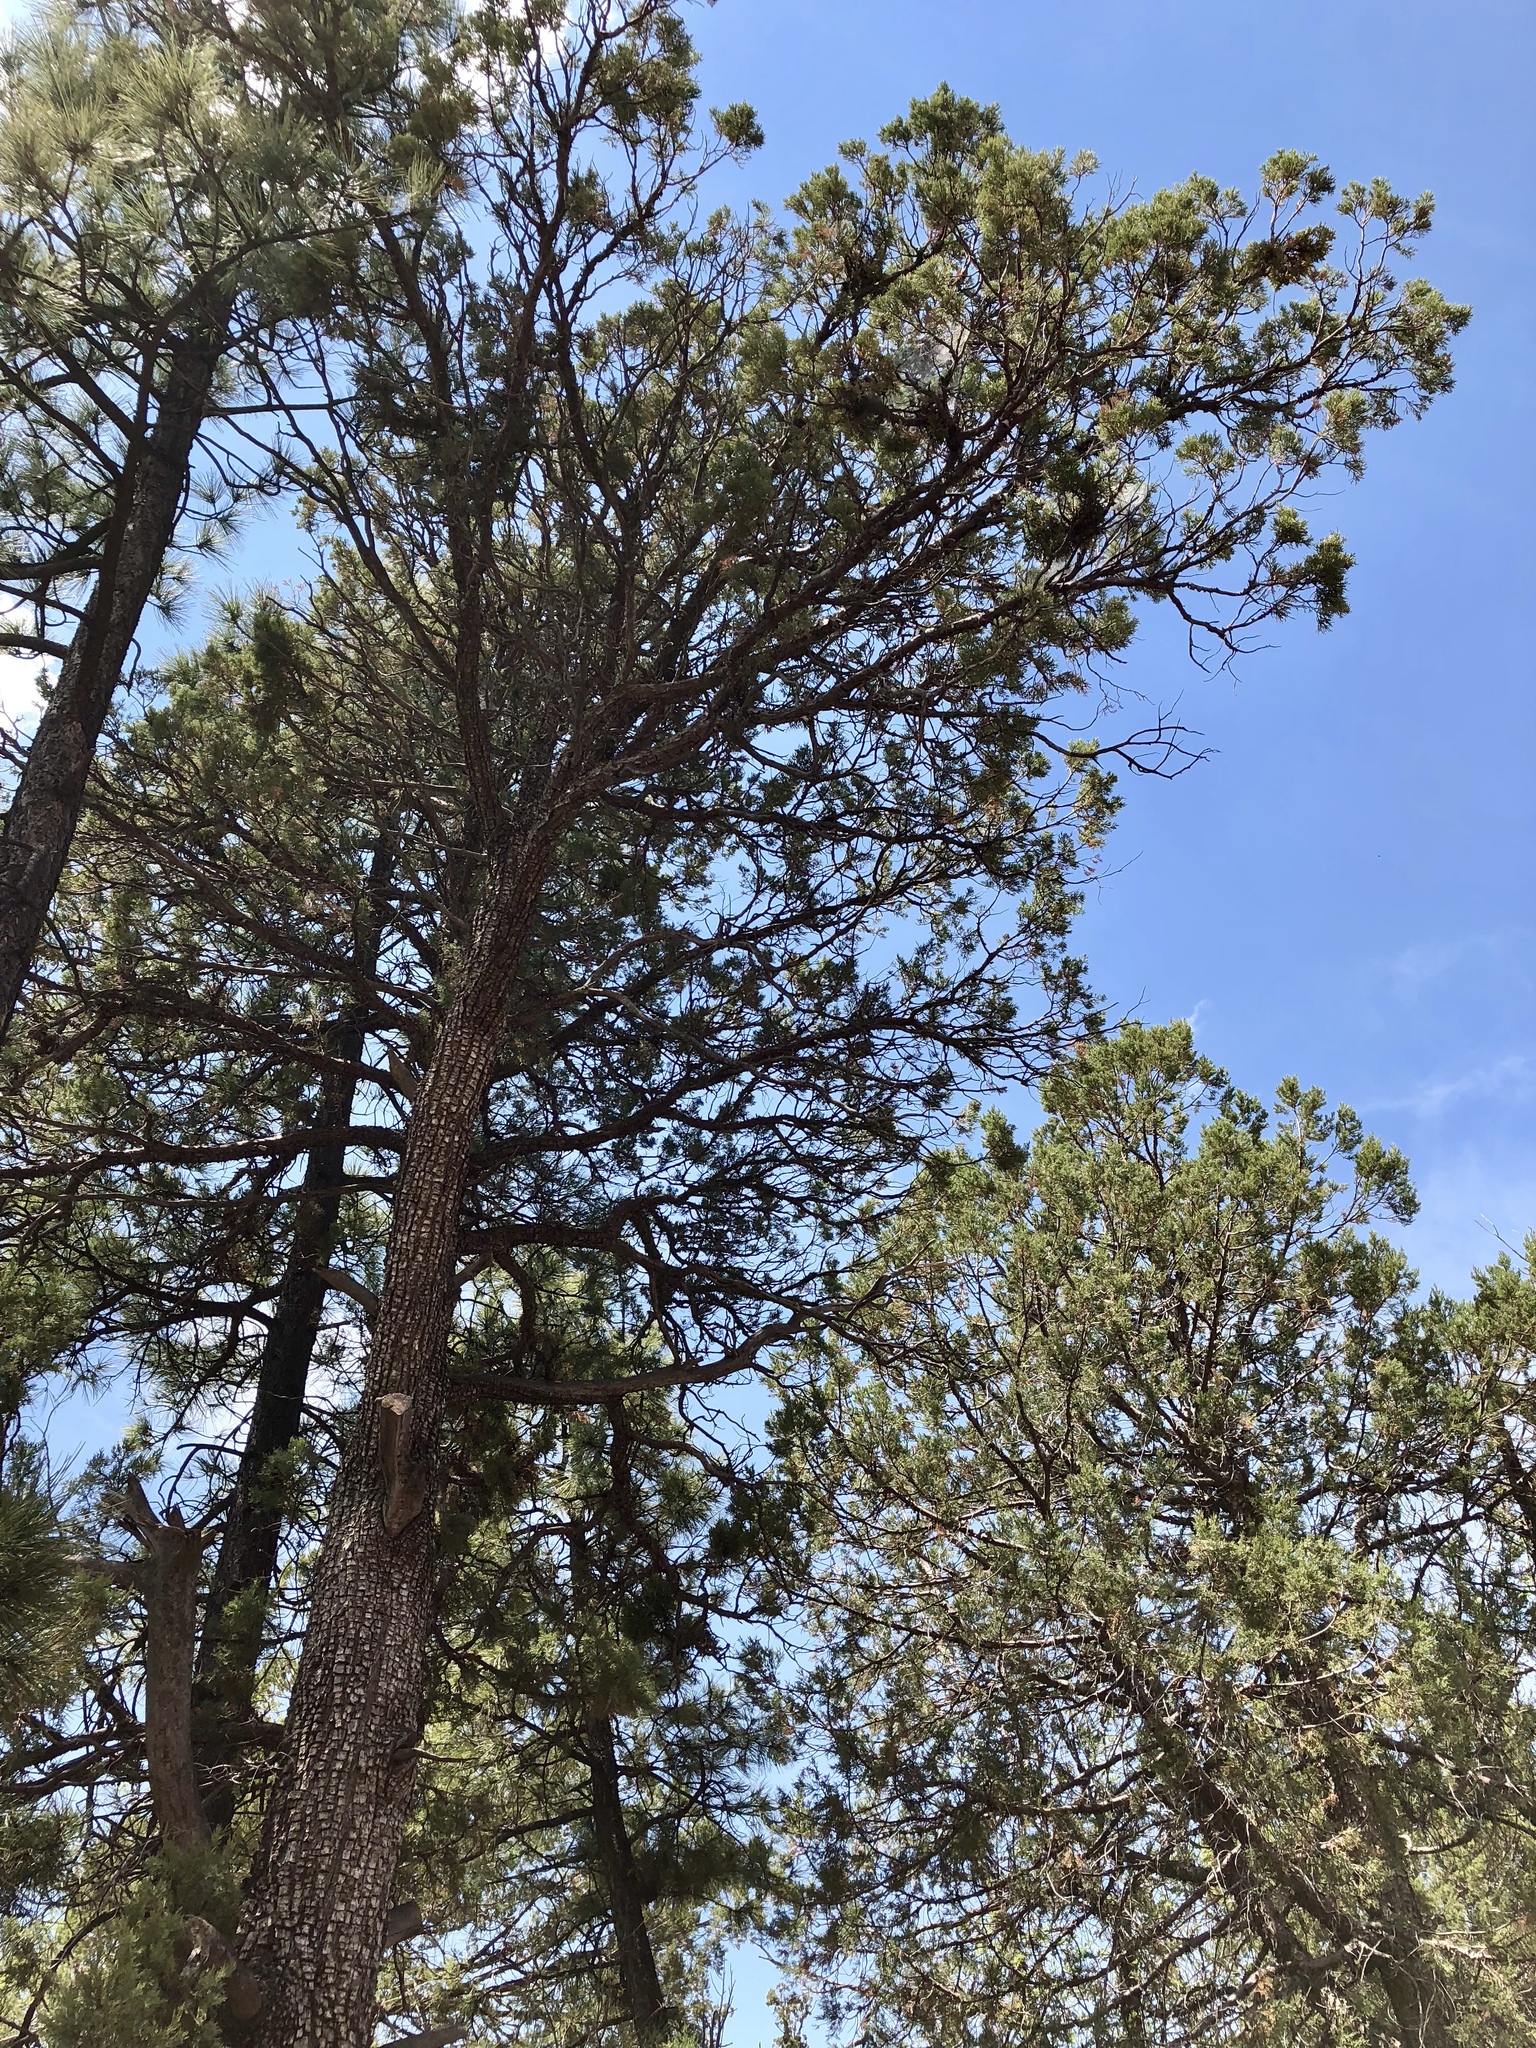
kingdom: Plantae
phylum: Tracheophyta
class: Pinopsida
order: Pinales
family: Cupressaceae
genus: Juniperus
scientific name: Juniperus deppeana
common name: Alligator juniper
